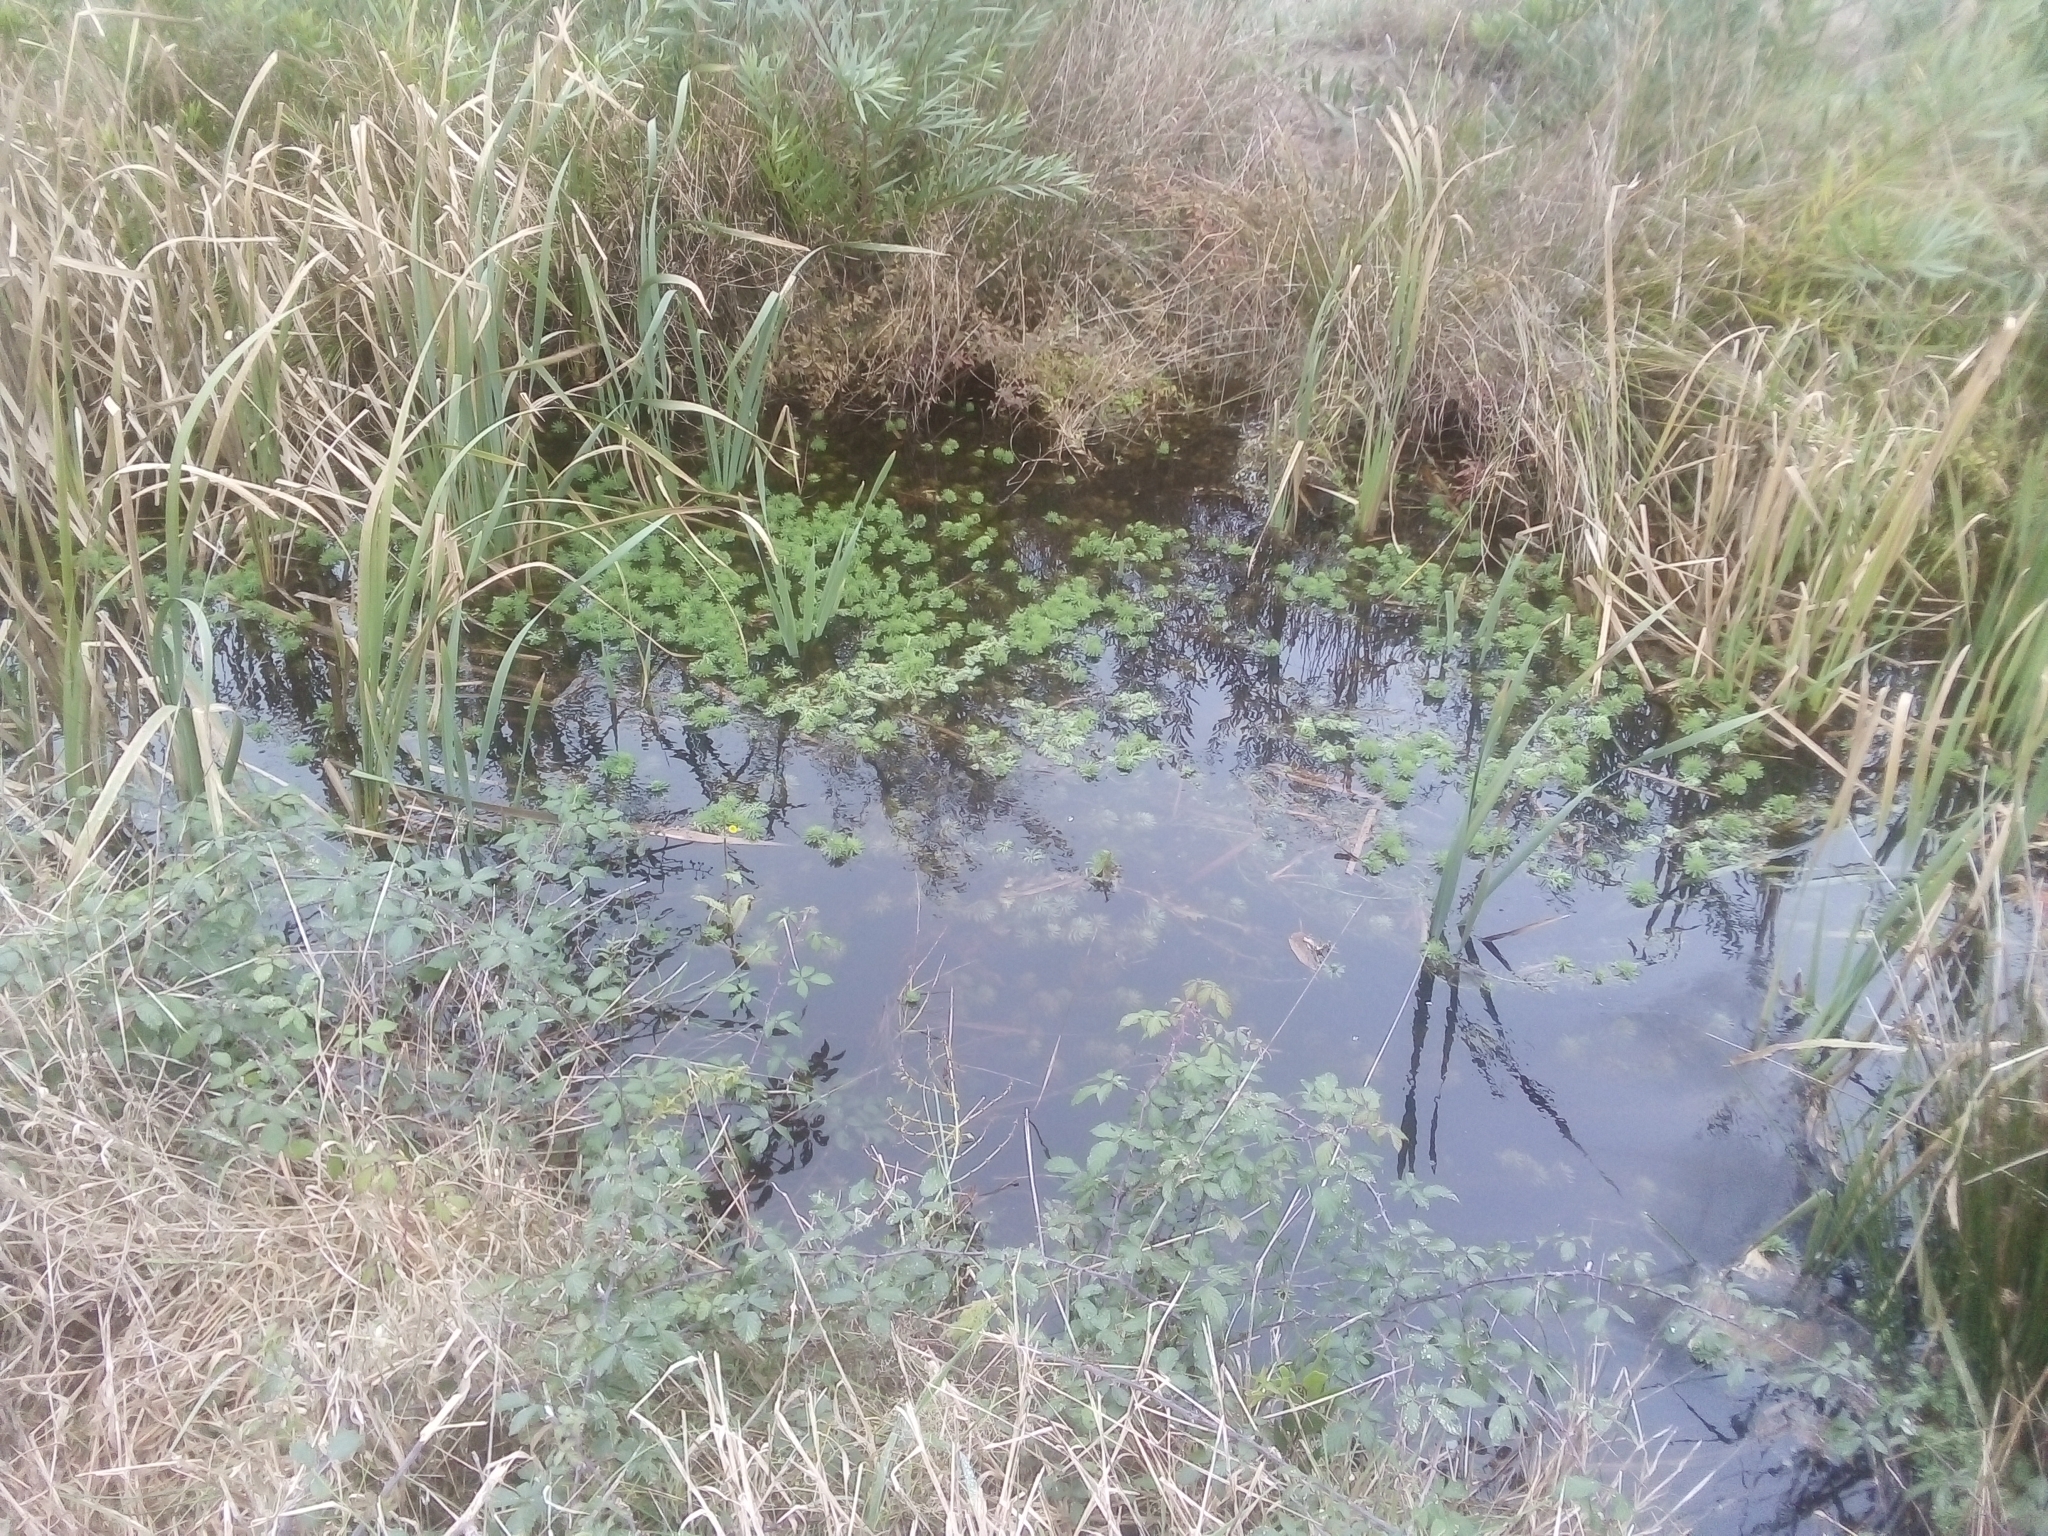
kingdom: Plantae
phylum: Tracheophyta
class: Magnoliopsida
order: Saxifragales
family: Haloragaceae
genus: Myriophyllum
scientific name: Myriophyllum aquaticum
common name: Parrot's feather
